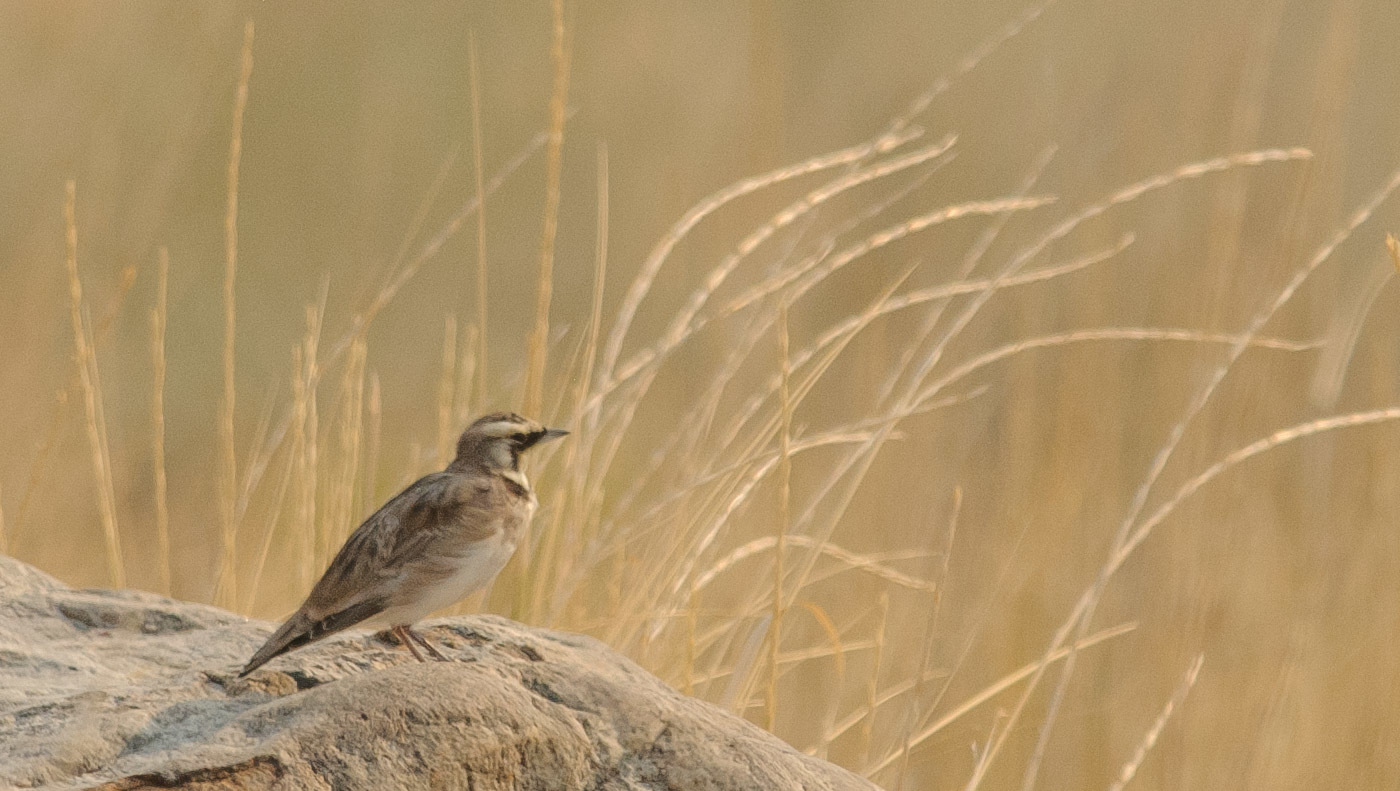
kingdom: Animalia
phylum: Chordata
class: Aves
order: Passeriformes
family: Alaudidae
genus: Eremophila
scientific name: Eremophila alpestris
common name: Horned lark
